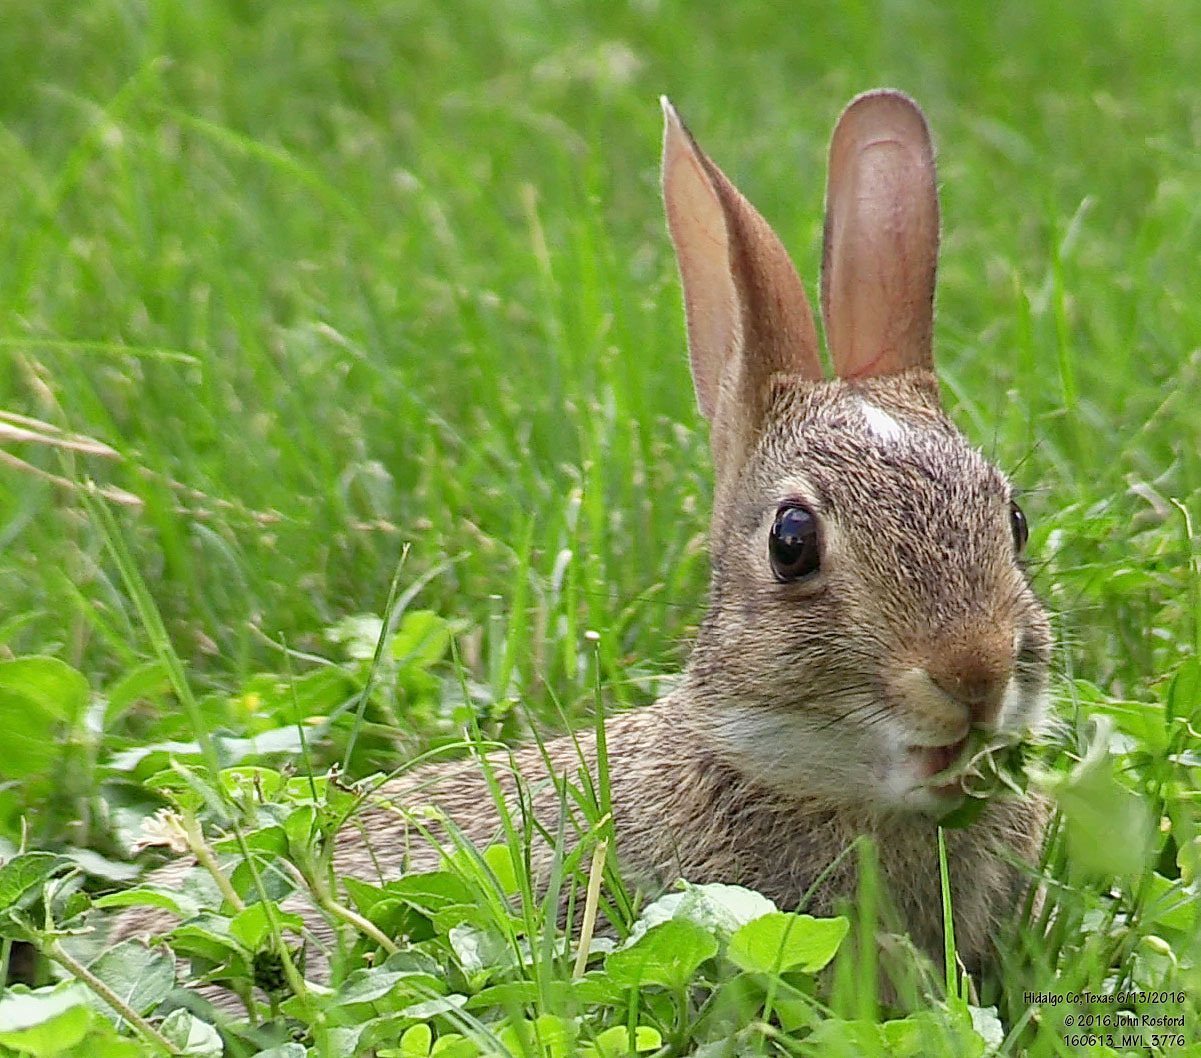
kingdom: Animalia
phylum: Chordata
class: Mammalia
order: Lagomorpha
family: Leporidae
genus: Sylvilagus
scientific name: Sylvilagus floridanus
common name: Eastern cottontail
